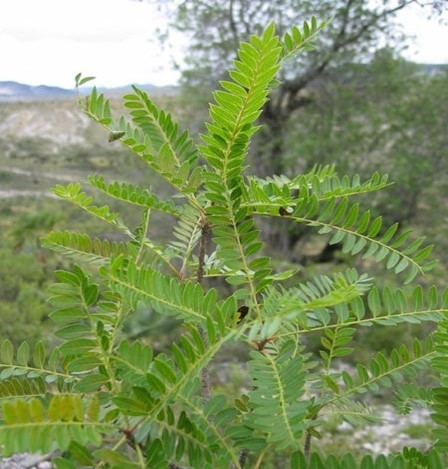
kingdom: Plantae
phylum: Tracheophyta
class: Magnoliopsida
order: Sapindales
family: Anacardiaceae
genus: Pistacia
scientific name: Pistacia mexicana
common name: Mexican pistachio
